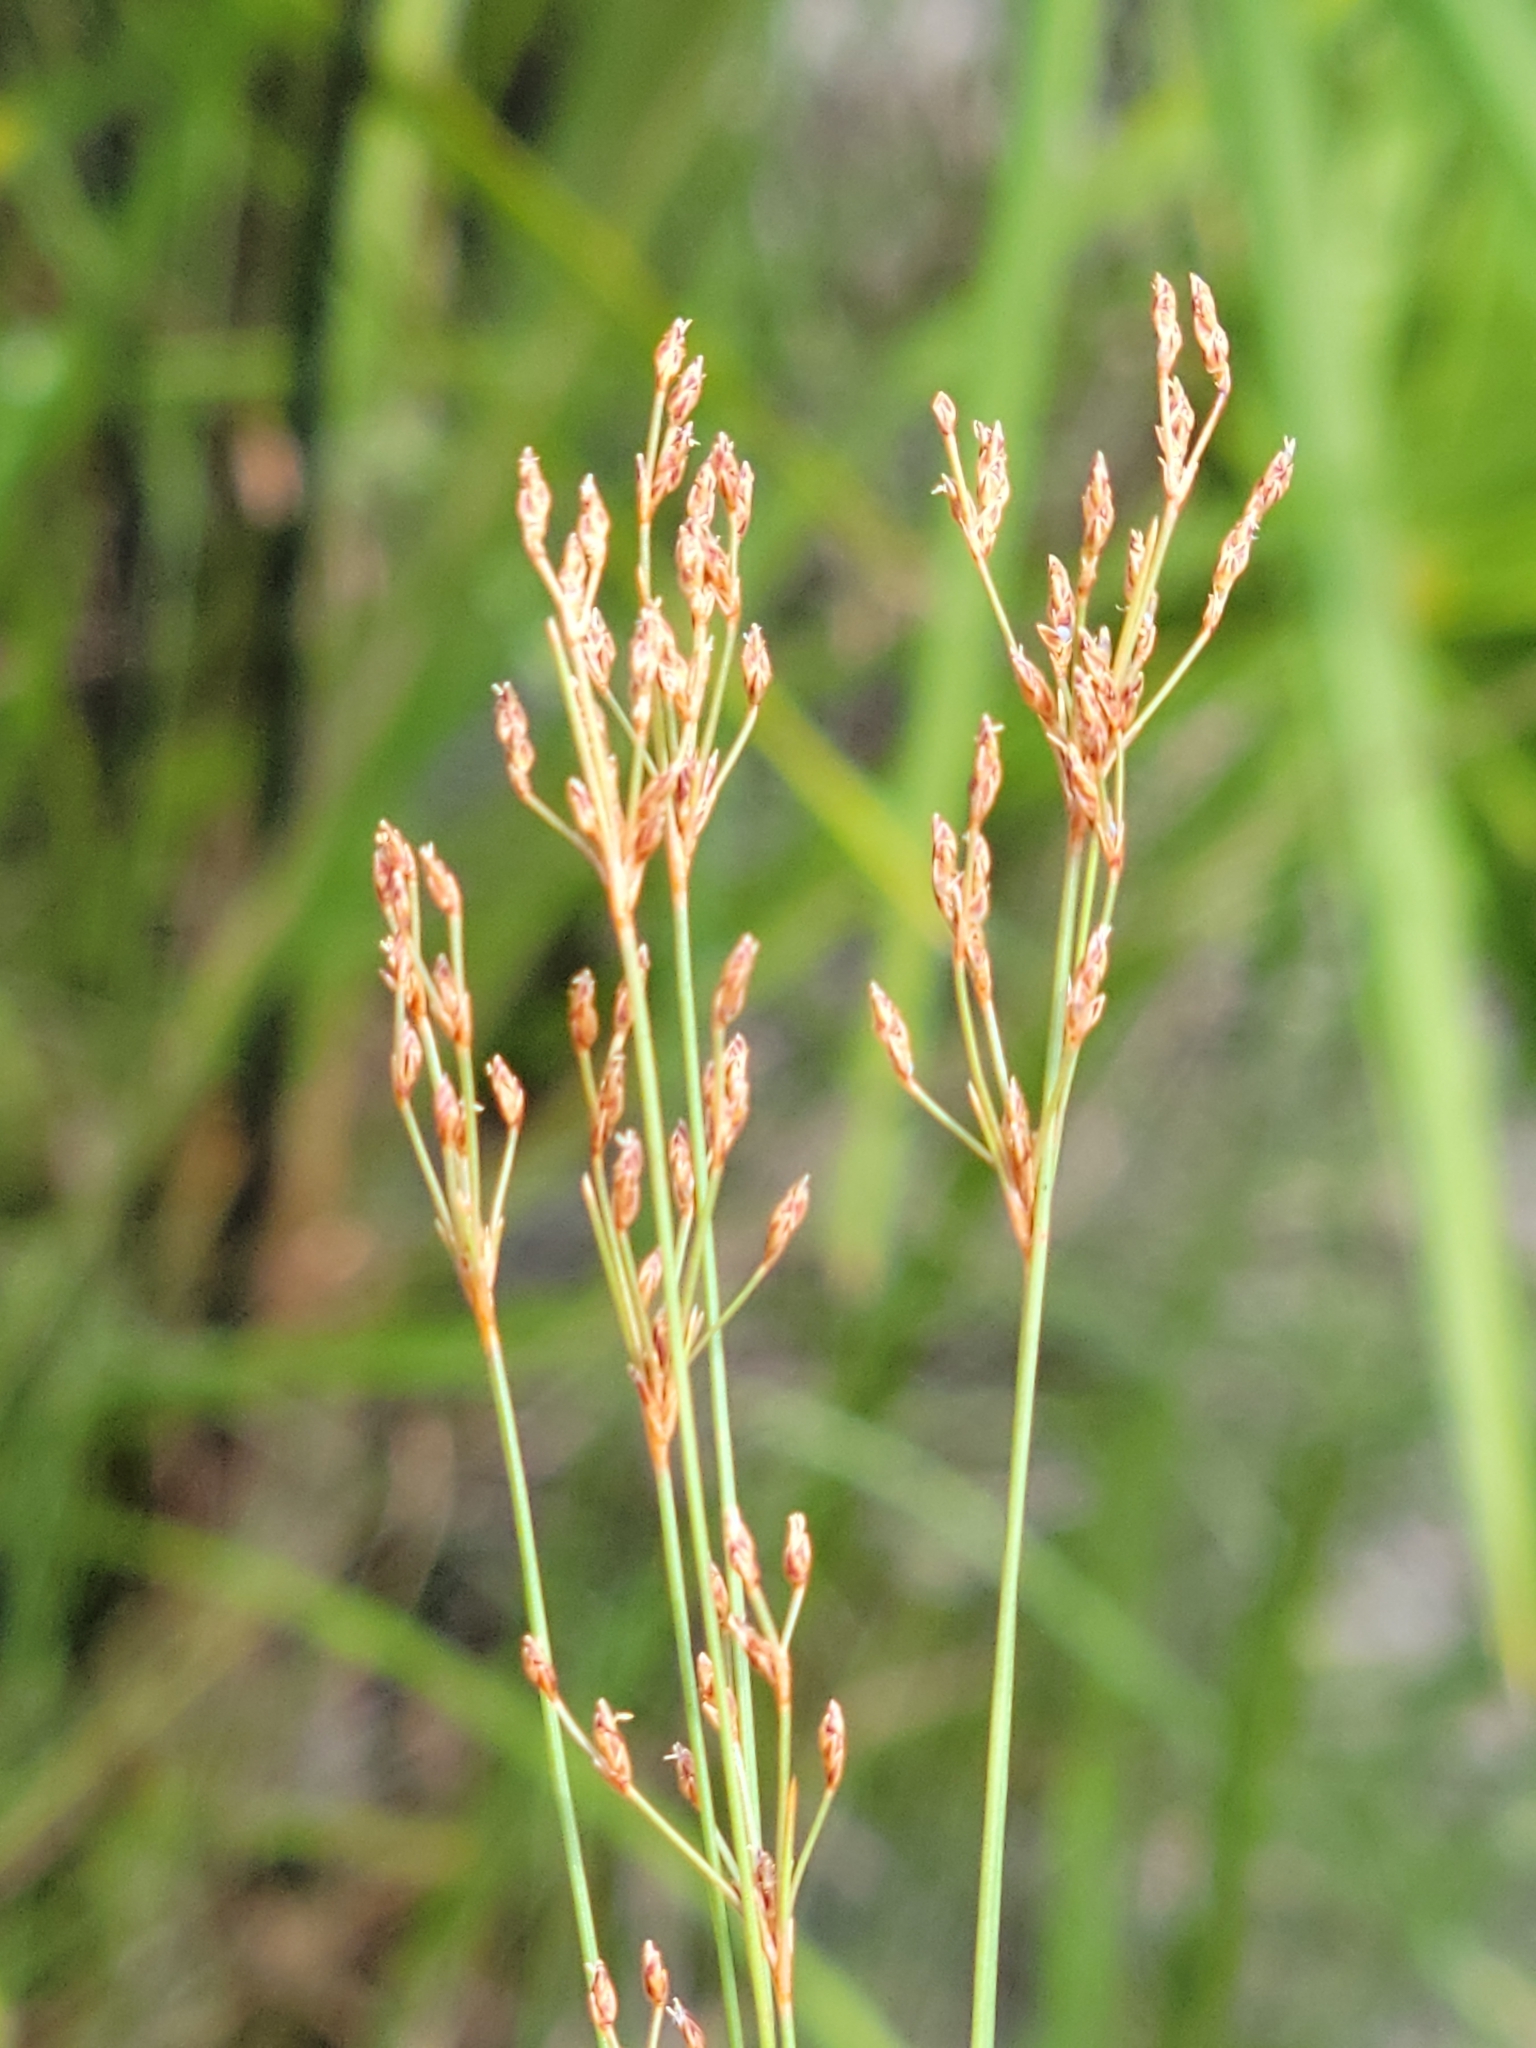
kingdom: Plantae
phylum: Tracheophyta
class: Liliopsida
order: Poales
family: Cyperaceae
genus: Bulbostylis
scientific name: Bulbostylis ciliatifolia
